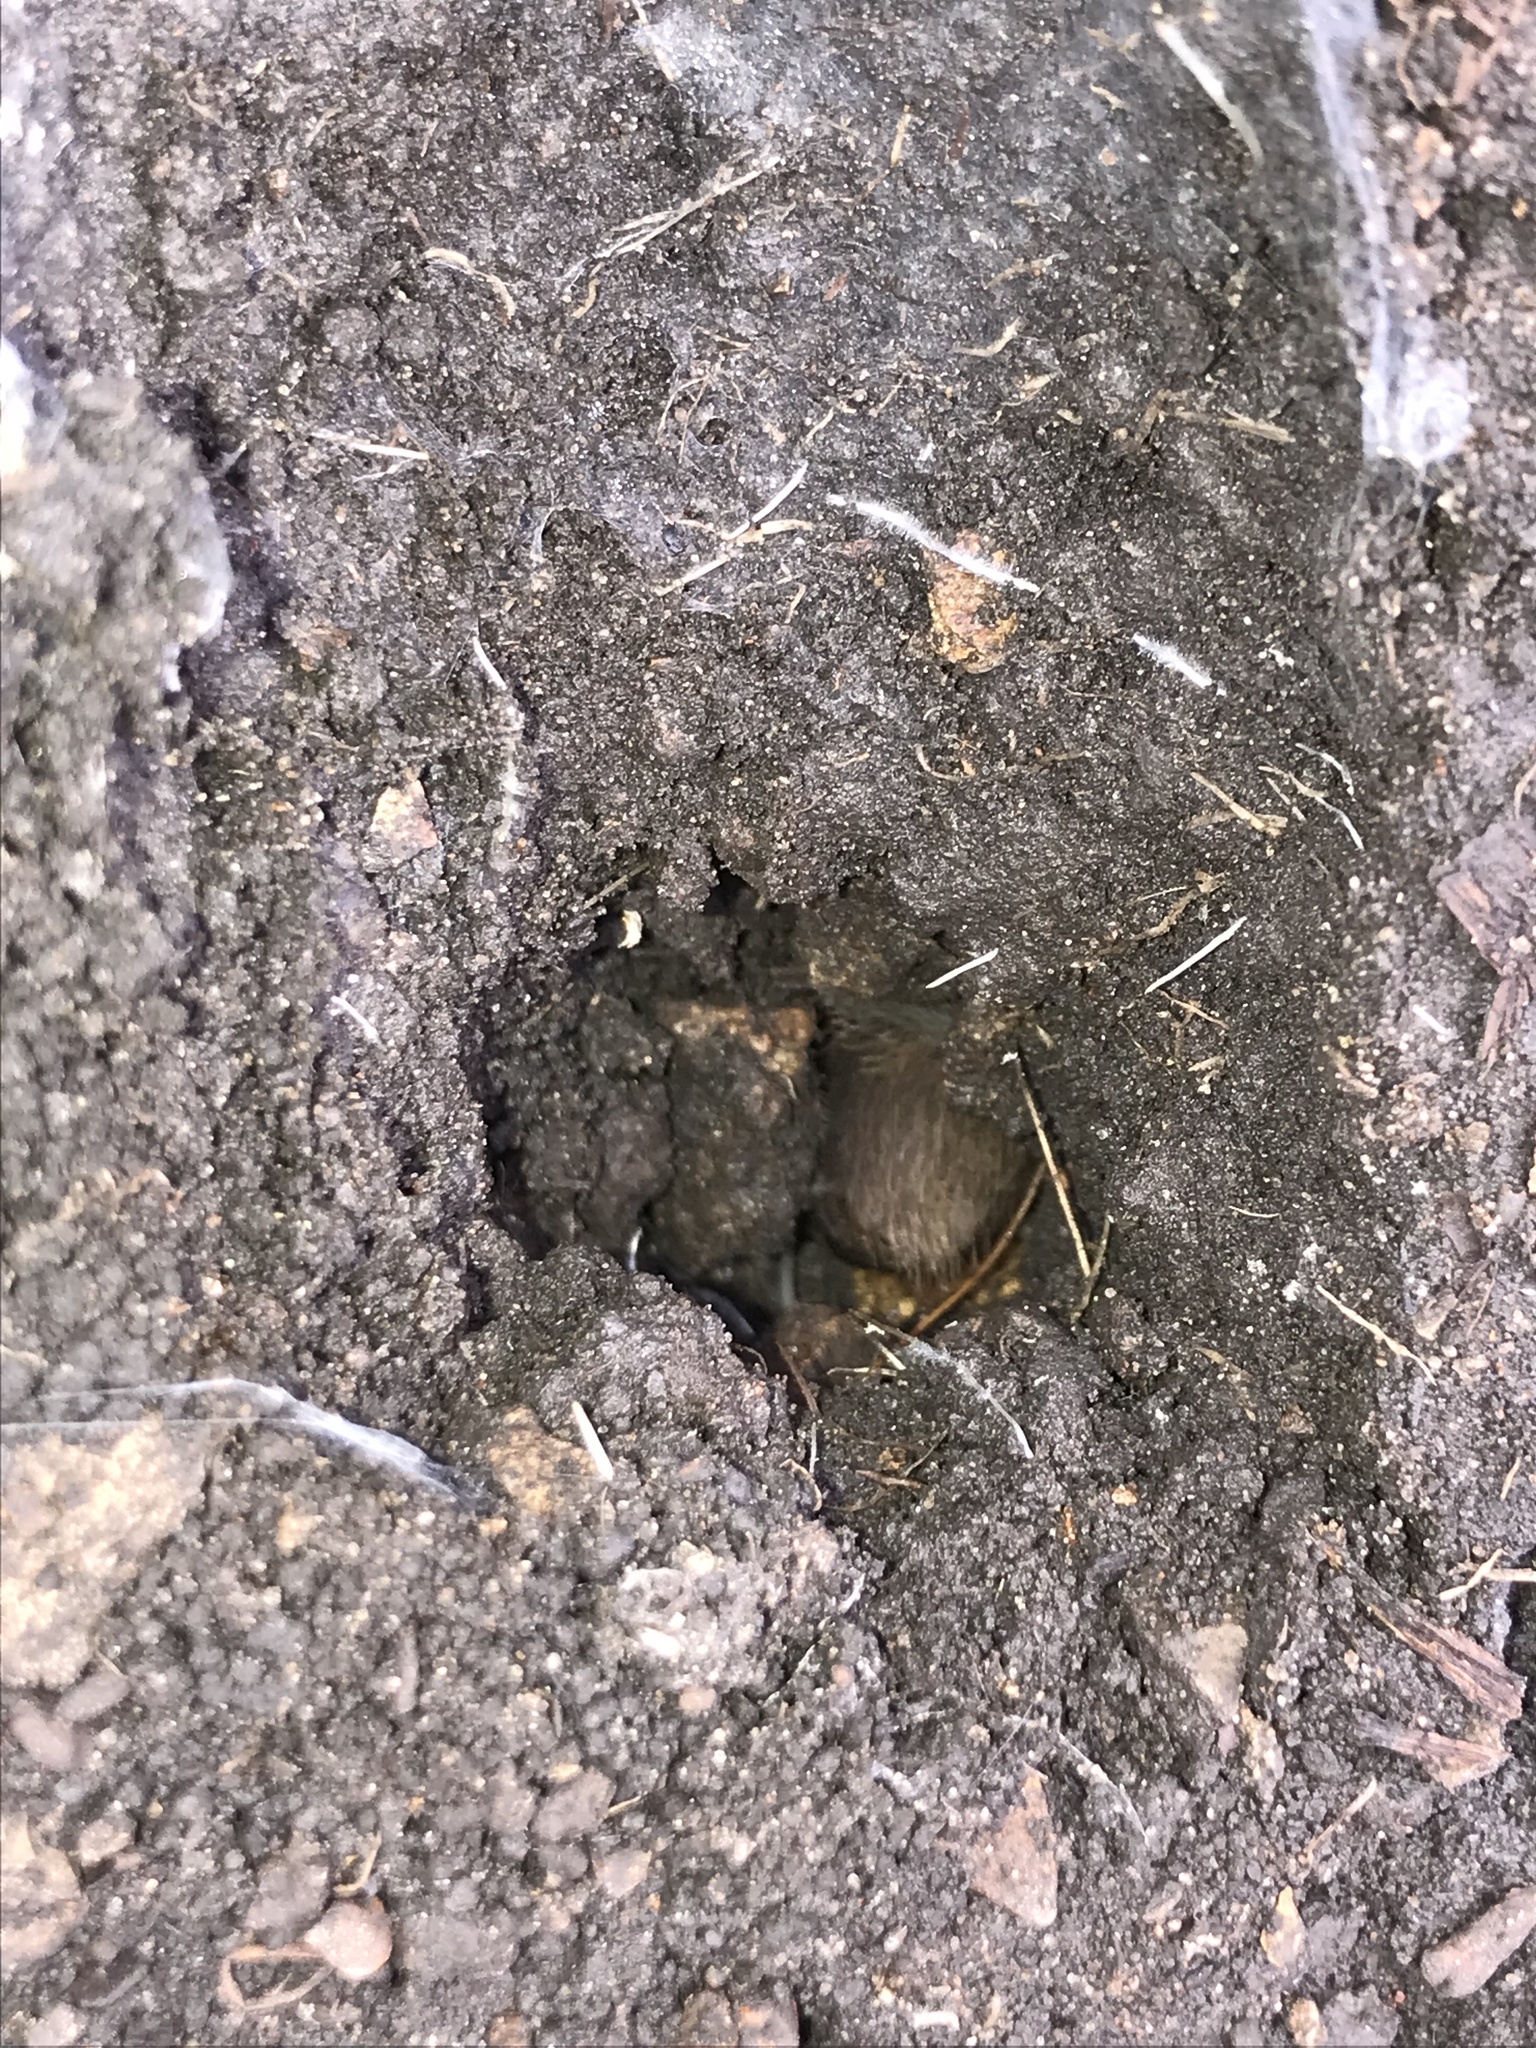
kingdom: Animalia
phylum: Arthropoda
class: Arachnida
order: Araneae
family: Theraphosidae
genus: Aphonopelma
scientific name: Aphonopelma hentzi
